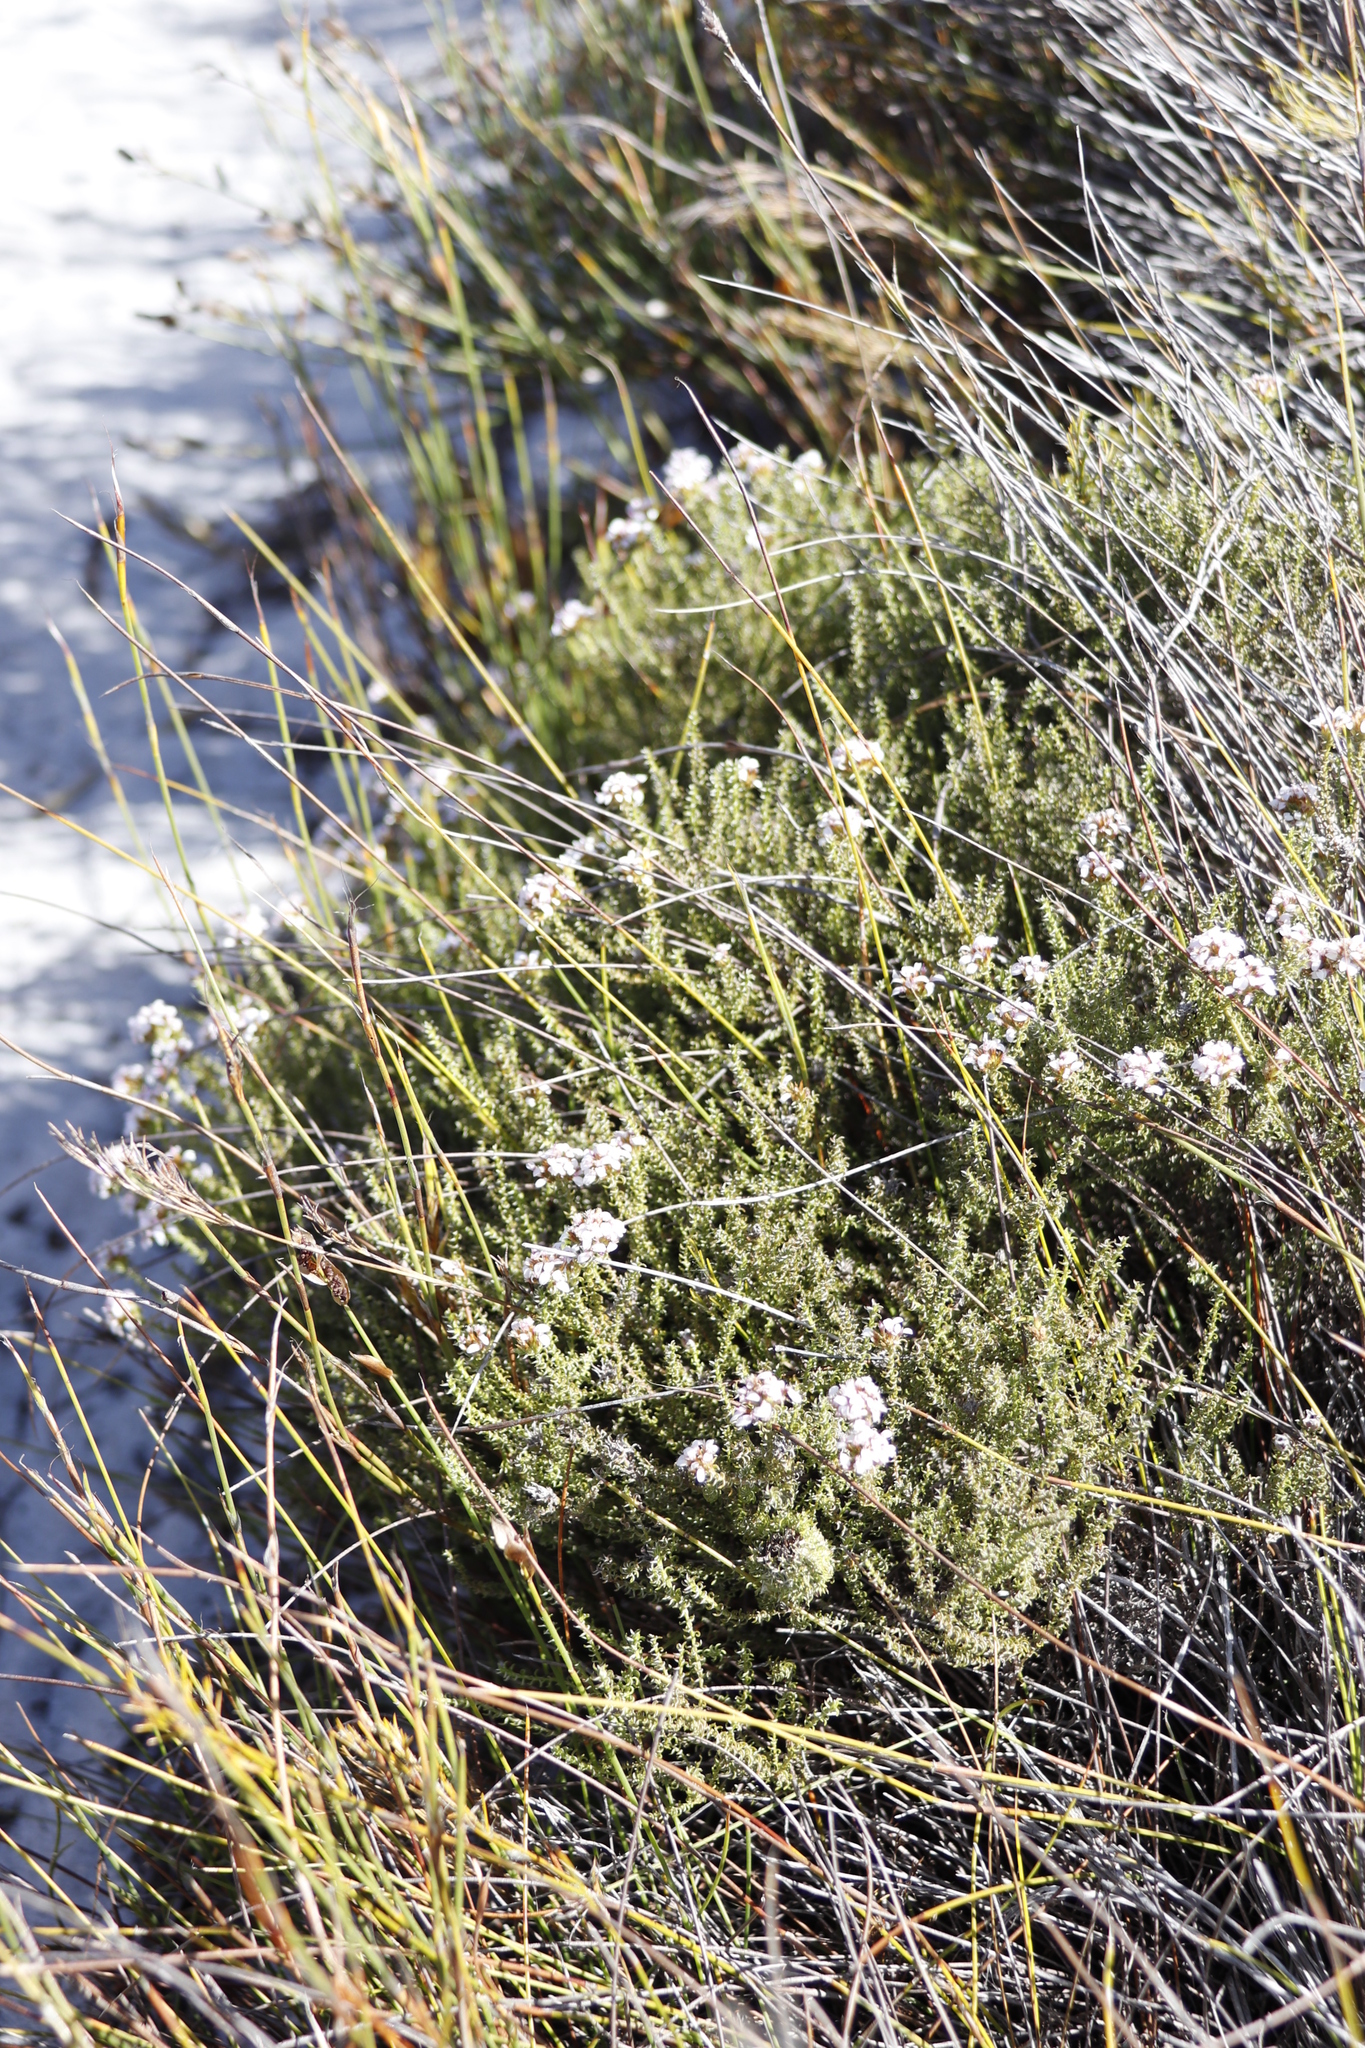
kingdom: Plantae
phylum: Tracheophyta
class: Magnoliopsida
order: Asterales
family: Asteraceae
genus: Disparago
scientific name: Disparago ericoides
